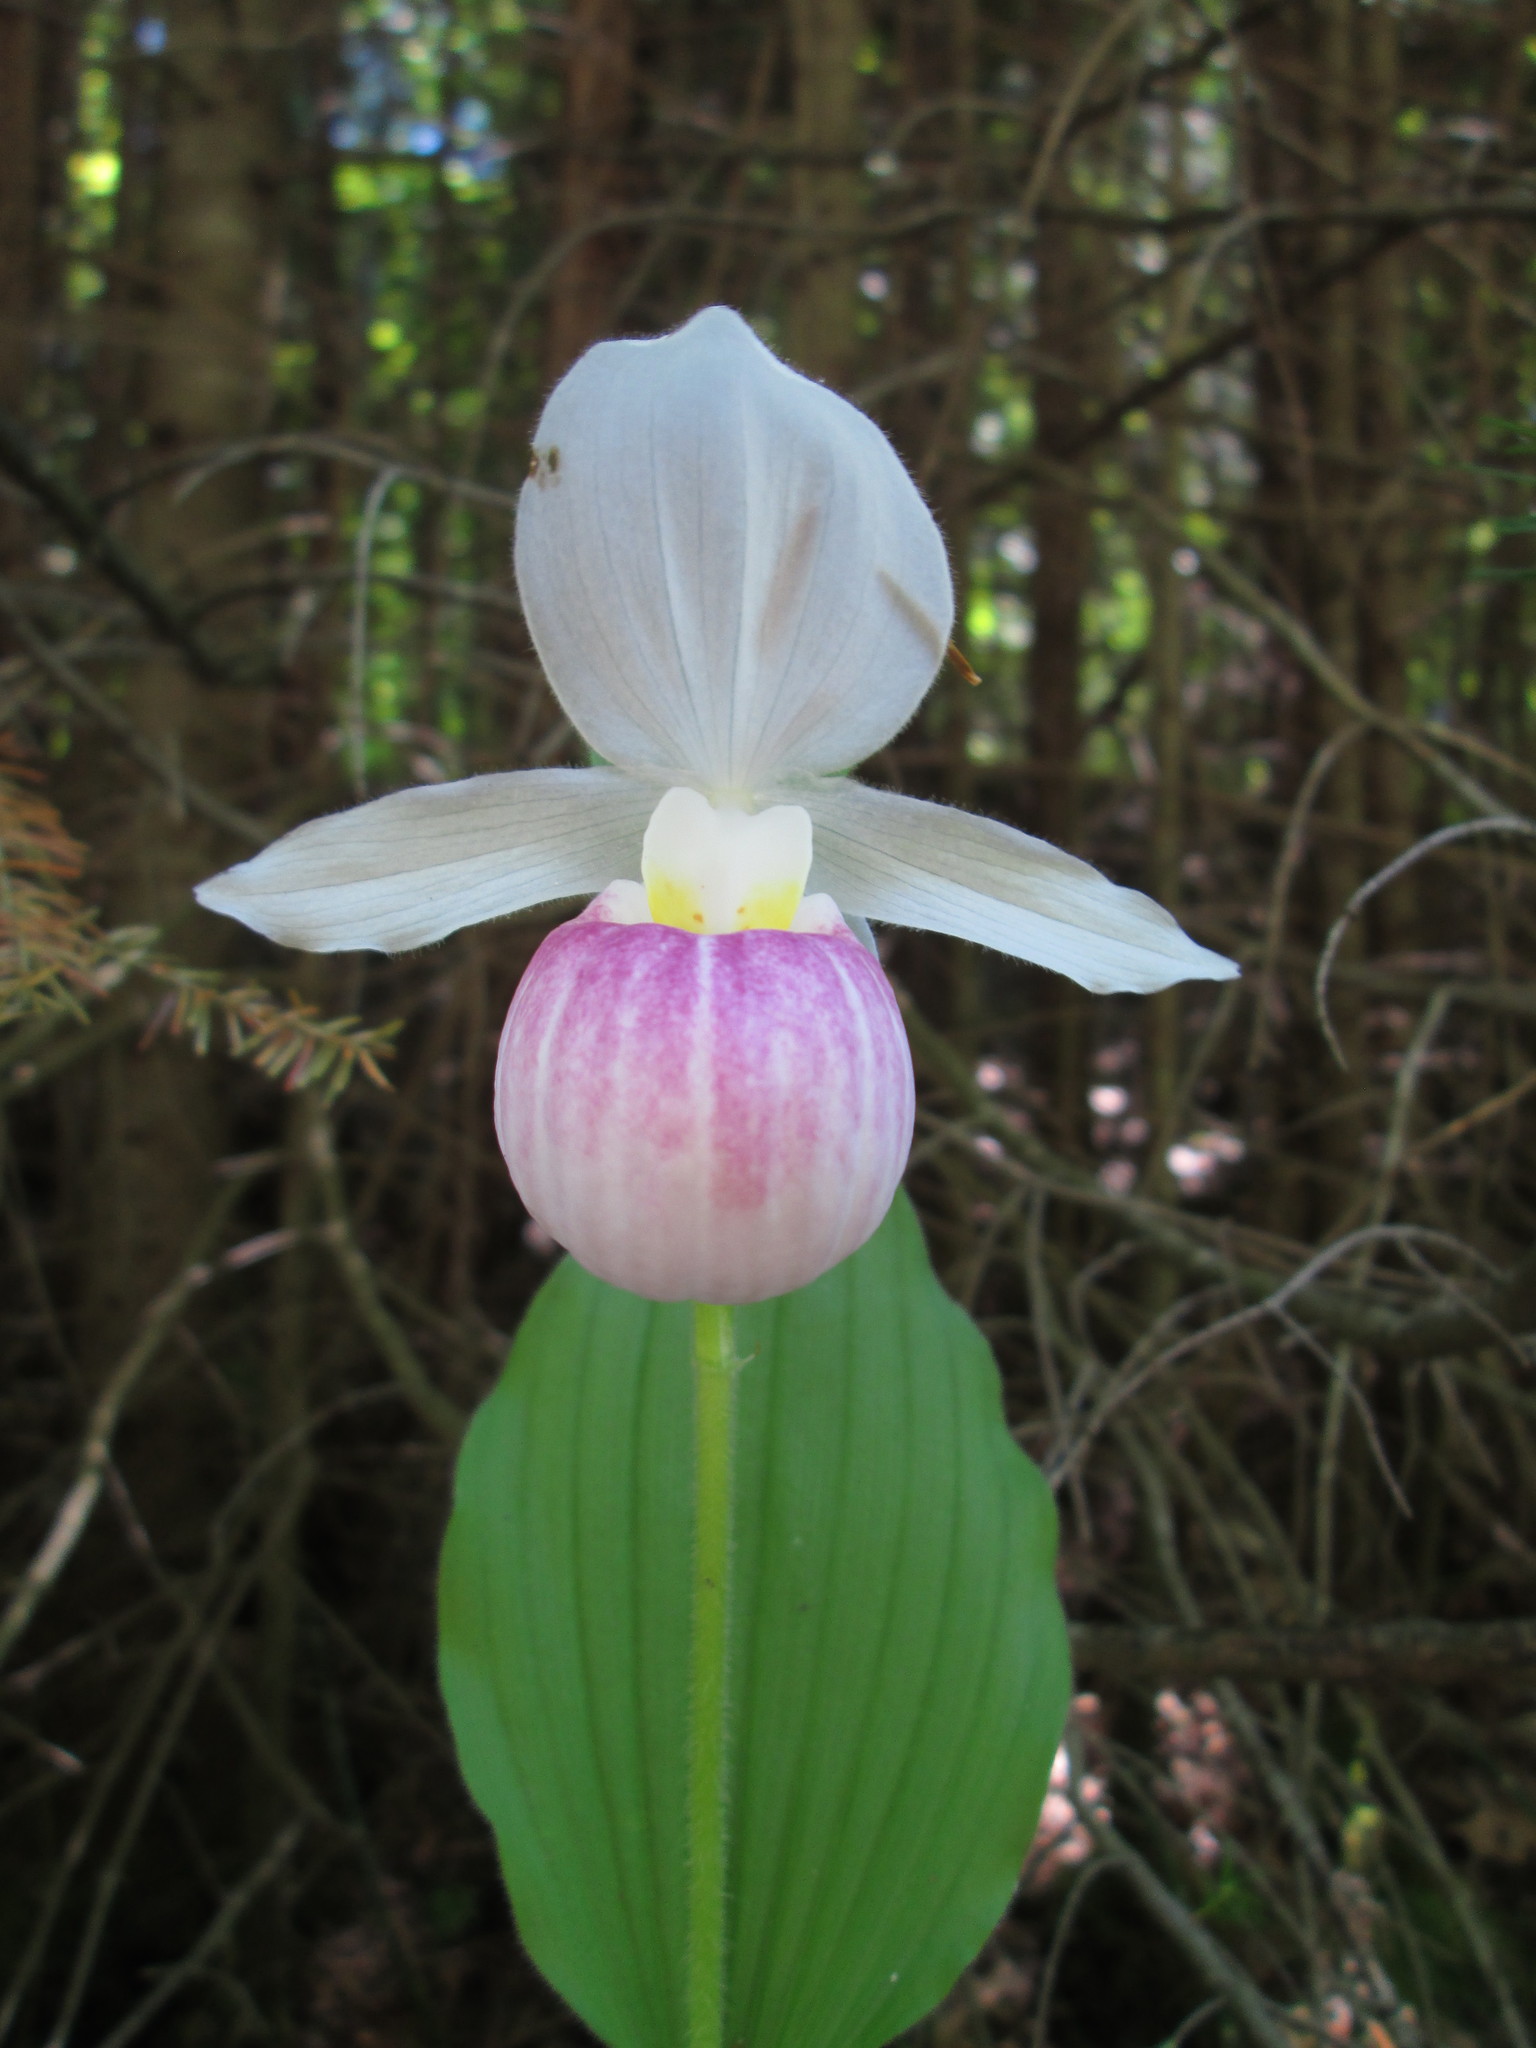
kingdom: Plantae
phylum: Tracheophyta
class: Liliopsida
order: Asparagales
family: Orchidaceae
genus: Cypripedium
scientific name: Cypripedium reginae
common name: Queen lady's-slipper
